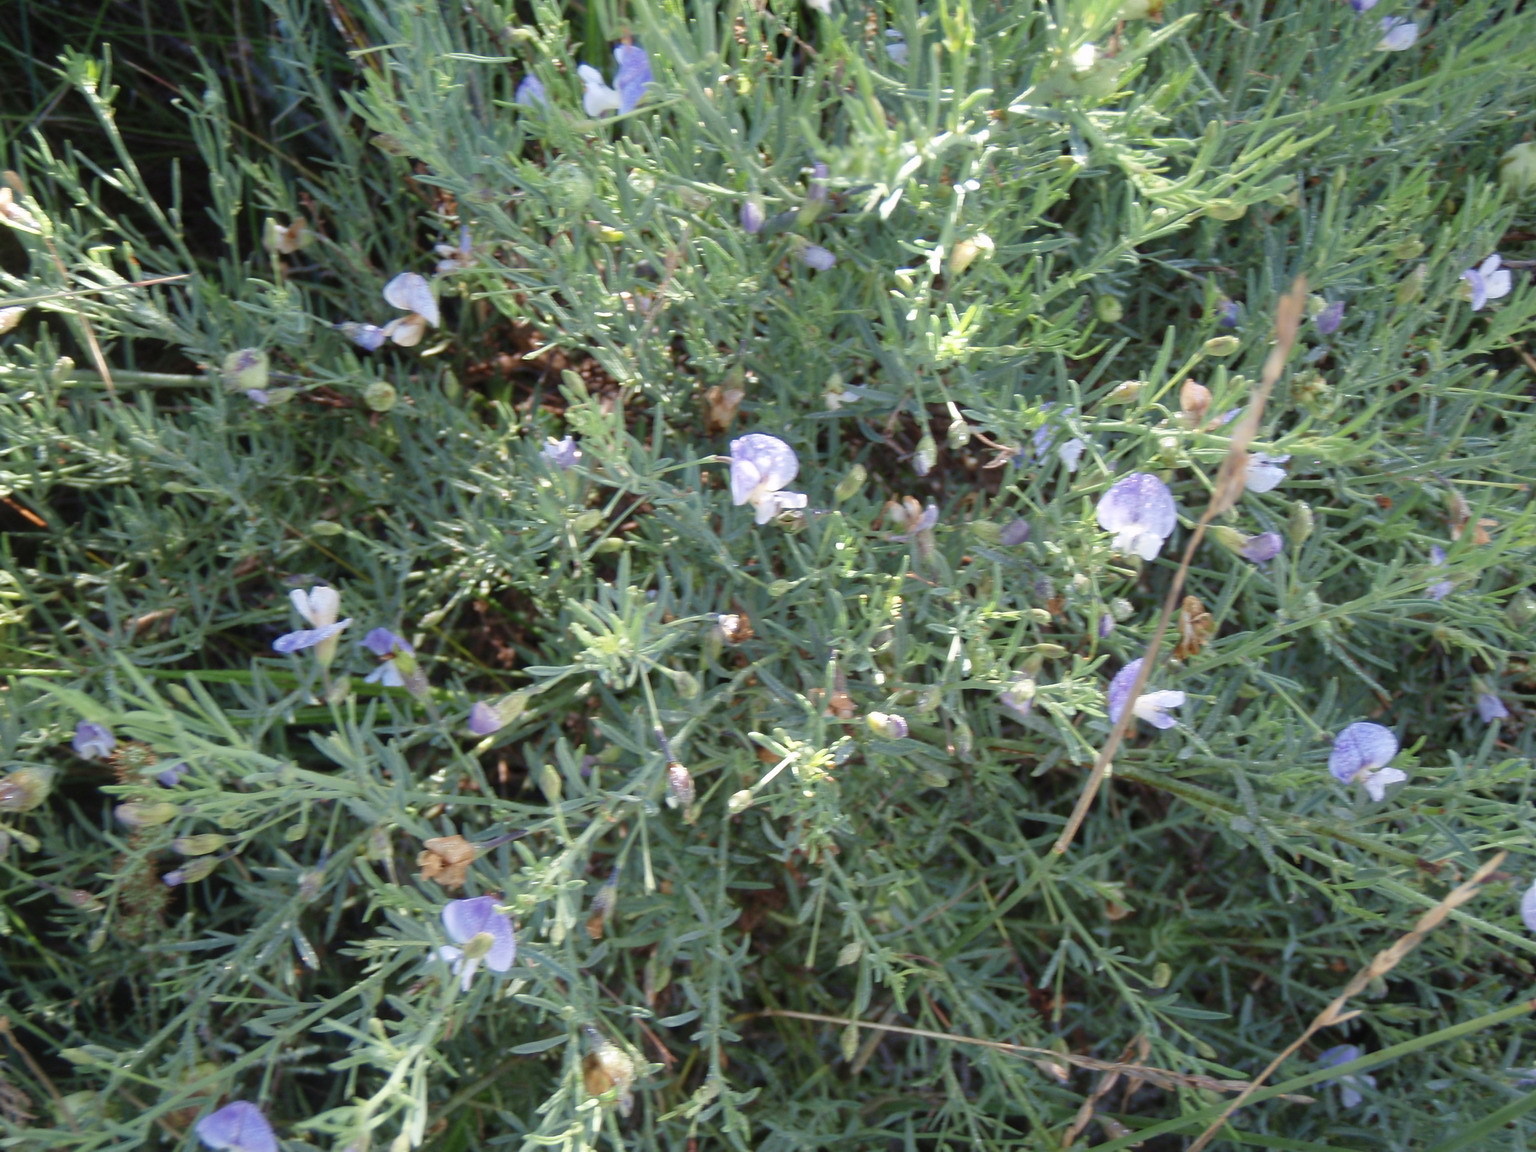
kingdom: Plantae
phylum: Tracheophyta
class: Magnoliopsida
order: Fabales
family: Fabaceae
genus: Psoralea
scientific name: Psoralea axillaris
